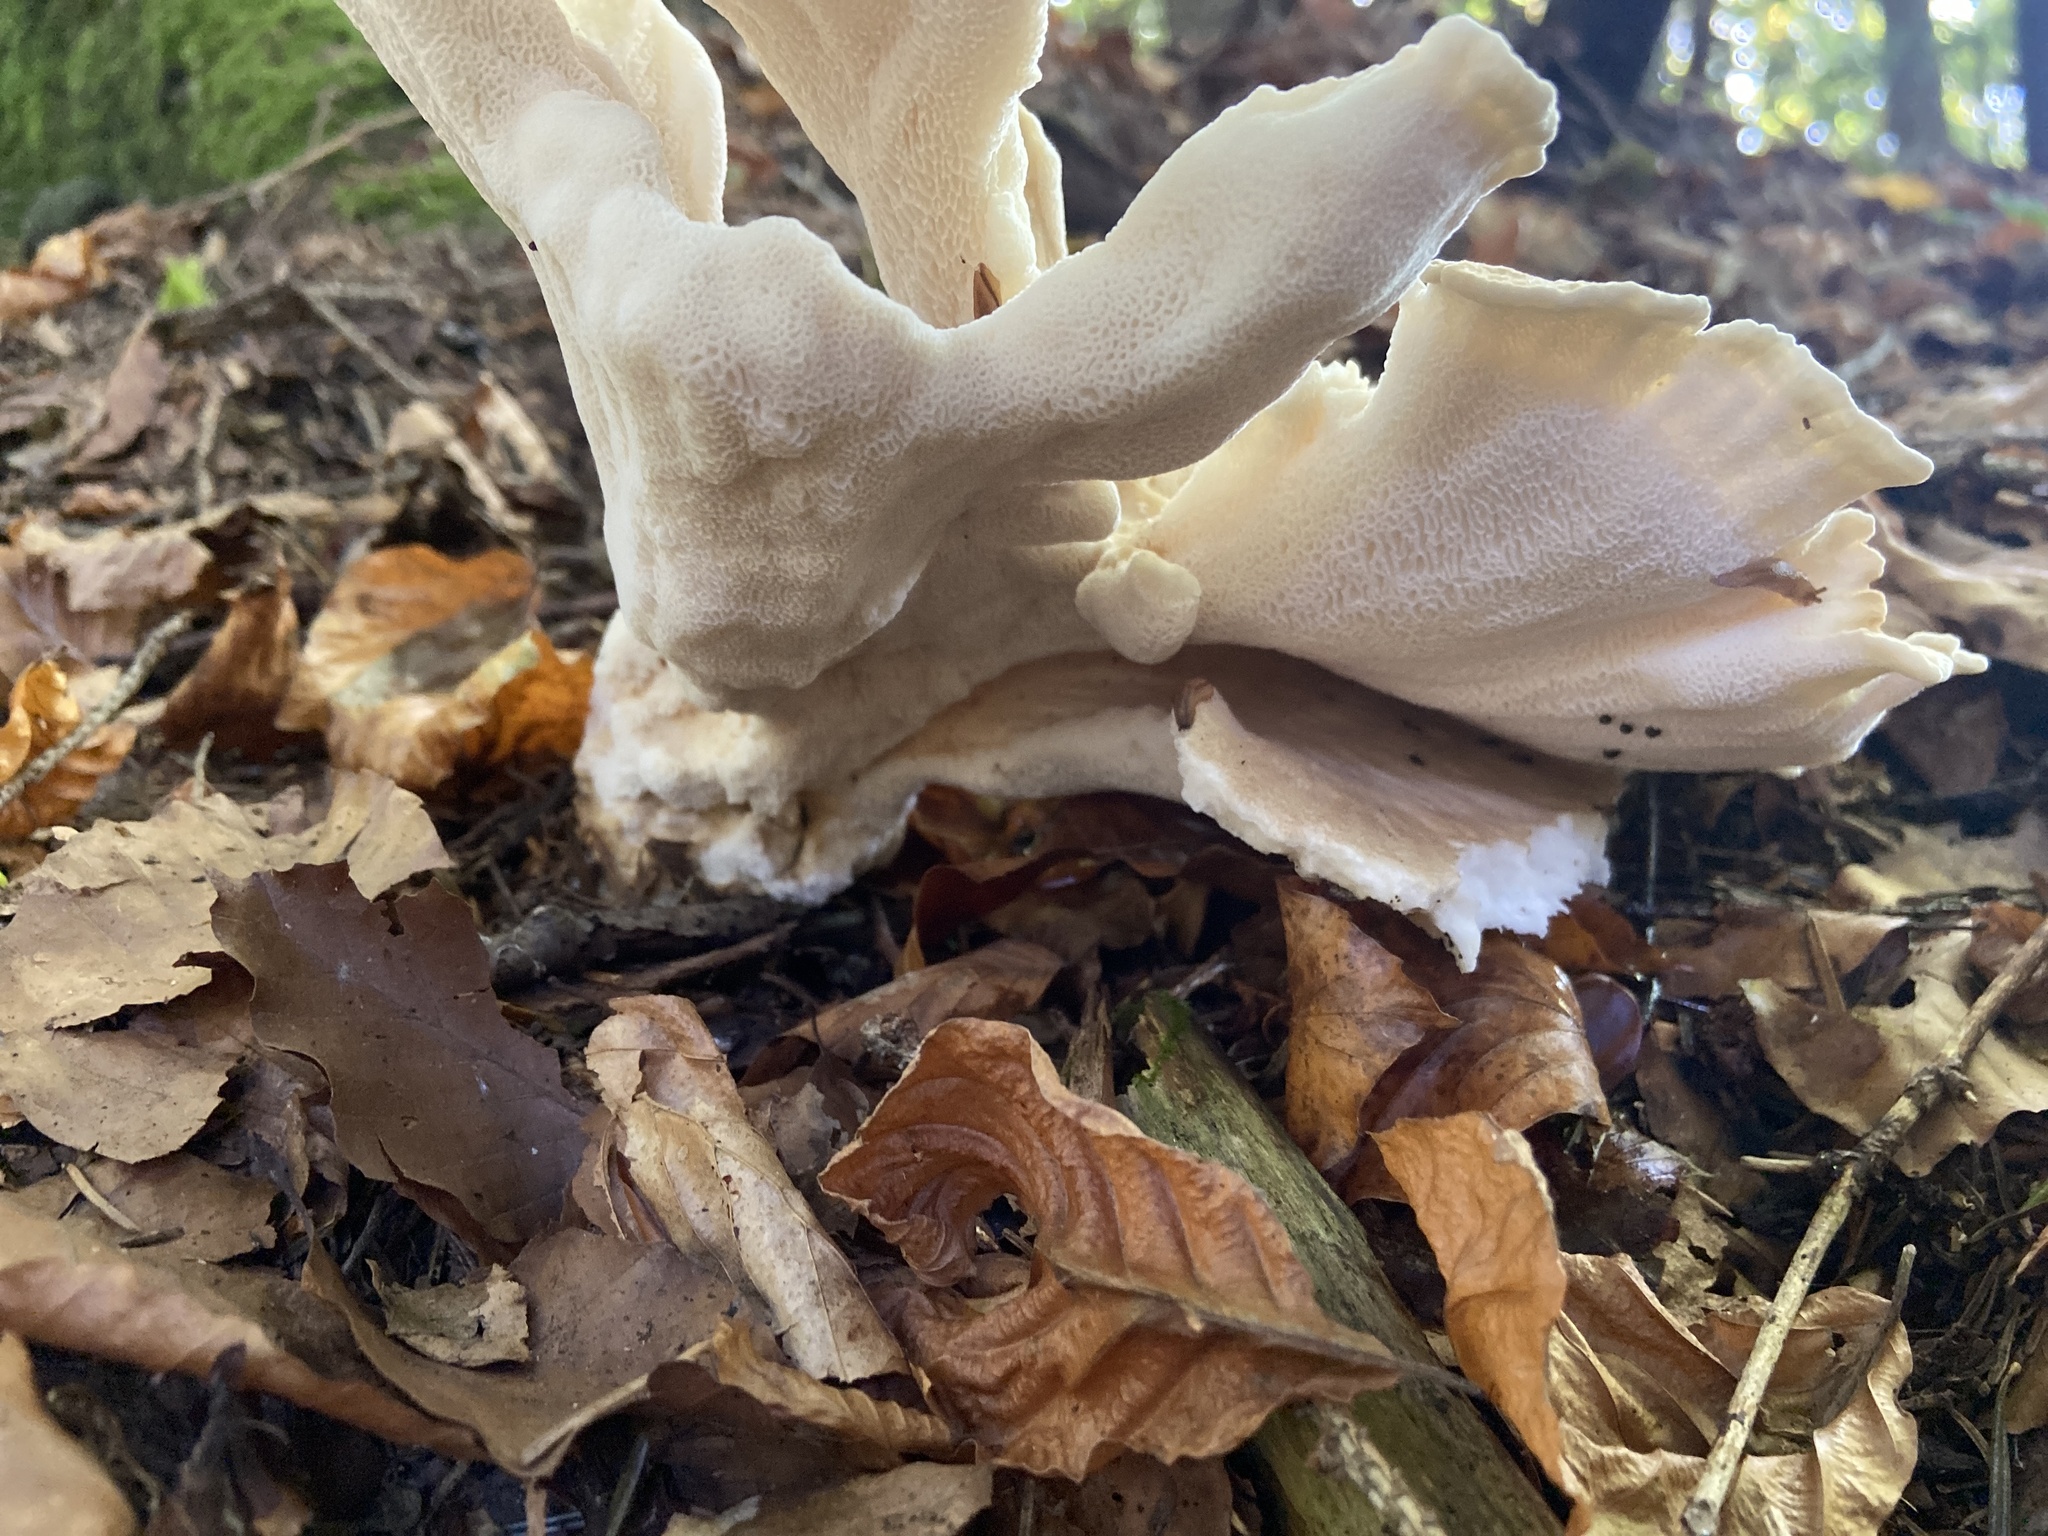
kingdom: Fungi
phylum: Basidiomycota
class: Agaricomycetes
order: Polyporales
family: Meripilaceae
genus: Meripilus
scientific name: Meripilus giganteus
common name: Giant polypore
